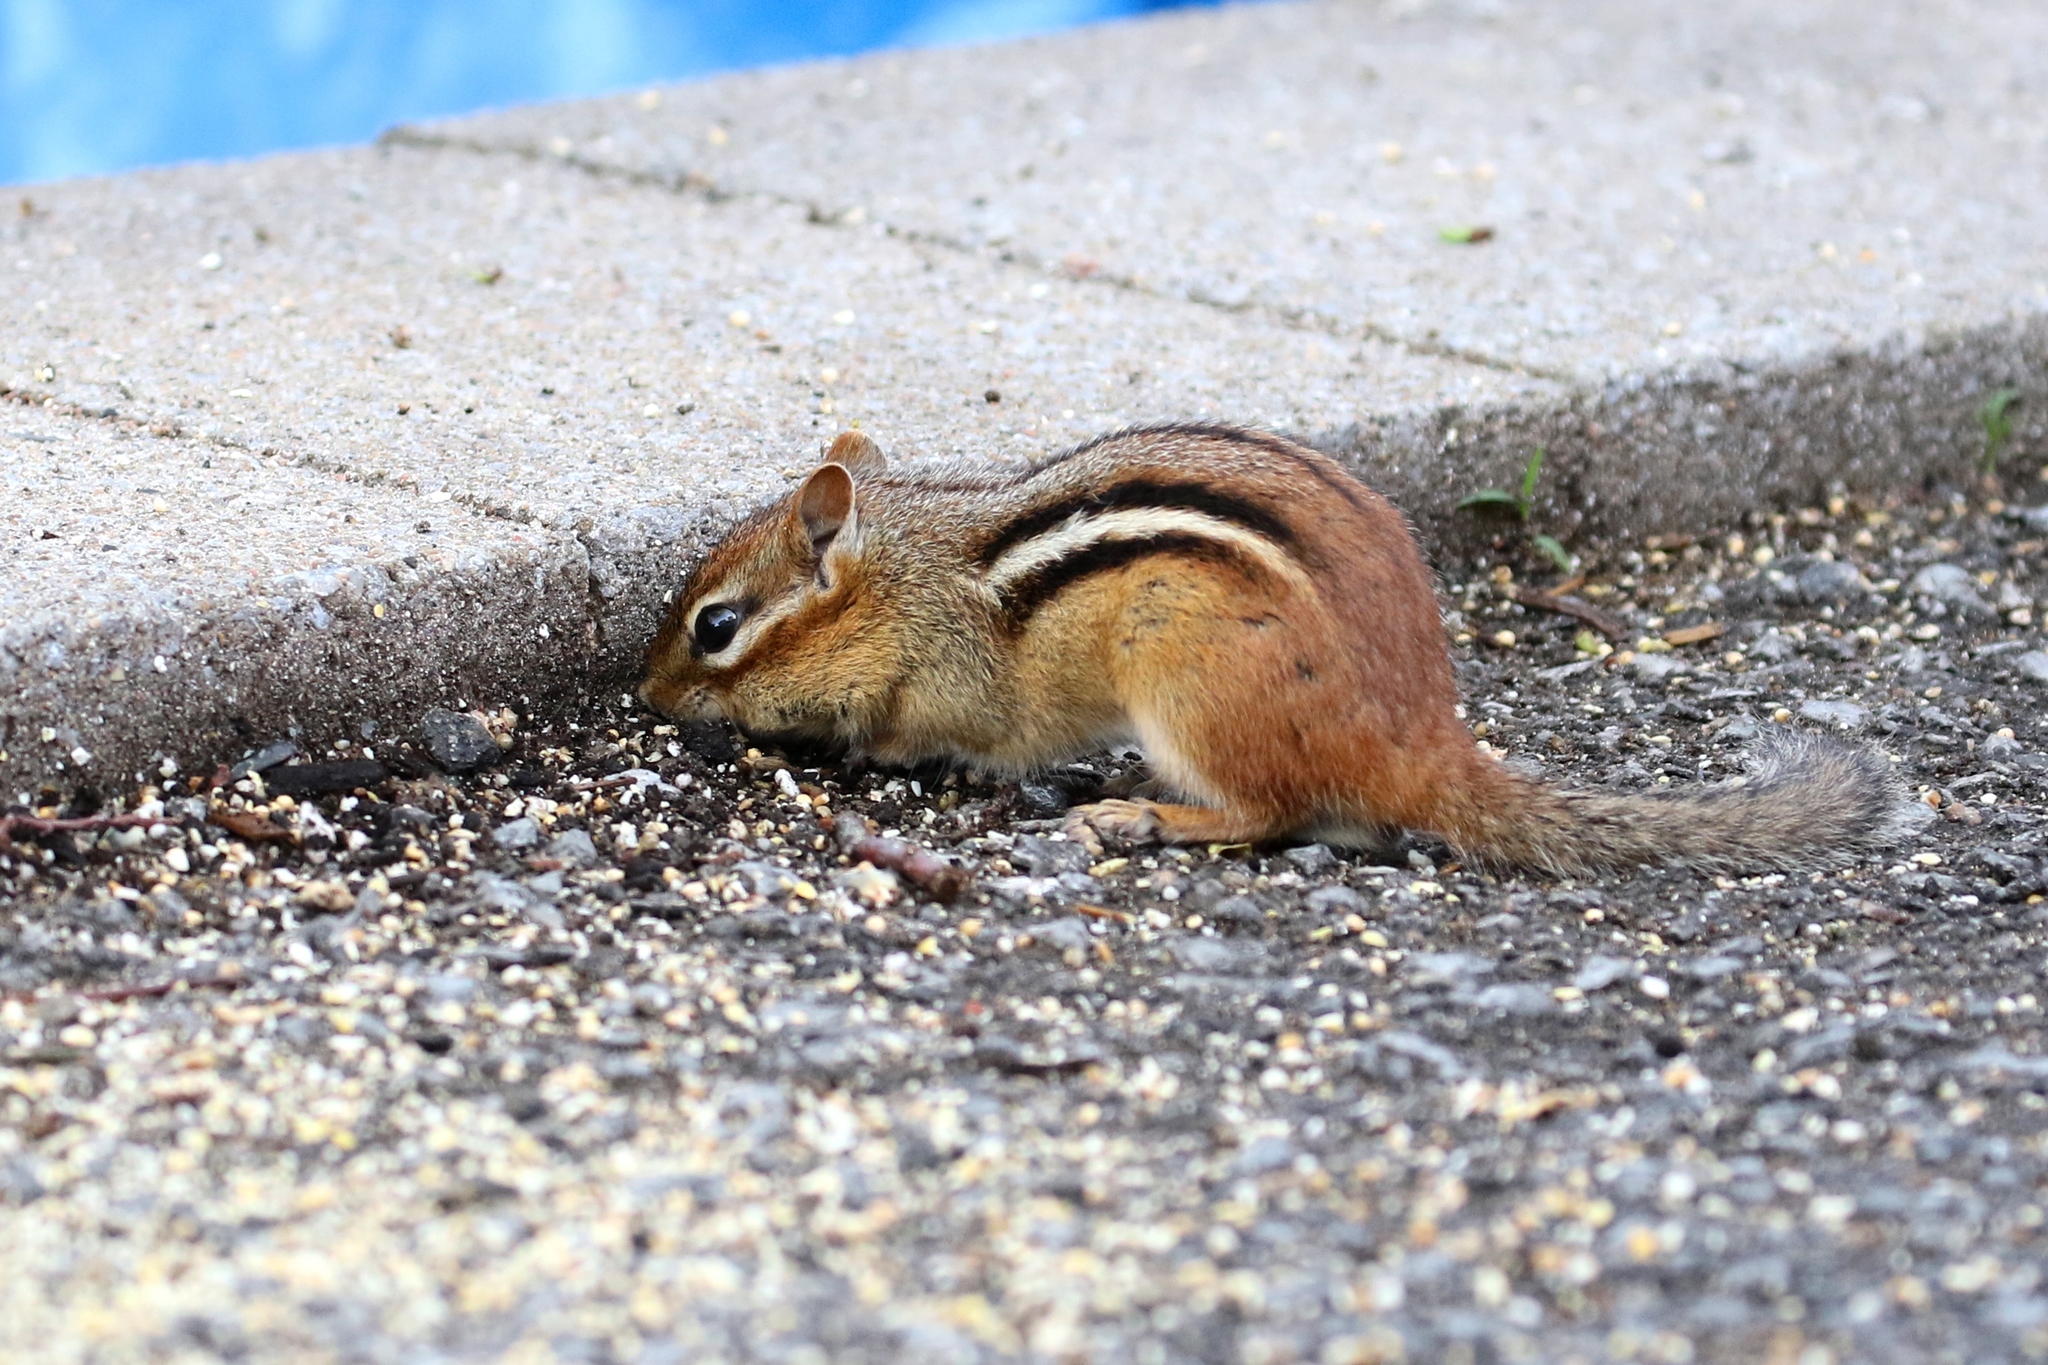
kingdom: Animalia
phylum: Chordata
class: Mammalia
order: Rodentia
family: Sciuridae
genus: Tamias
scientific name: Tamias striatus
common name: Eastern chipmunk
